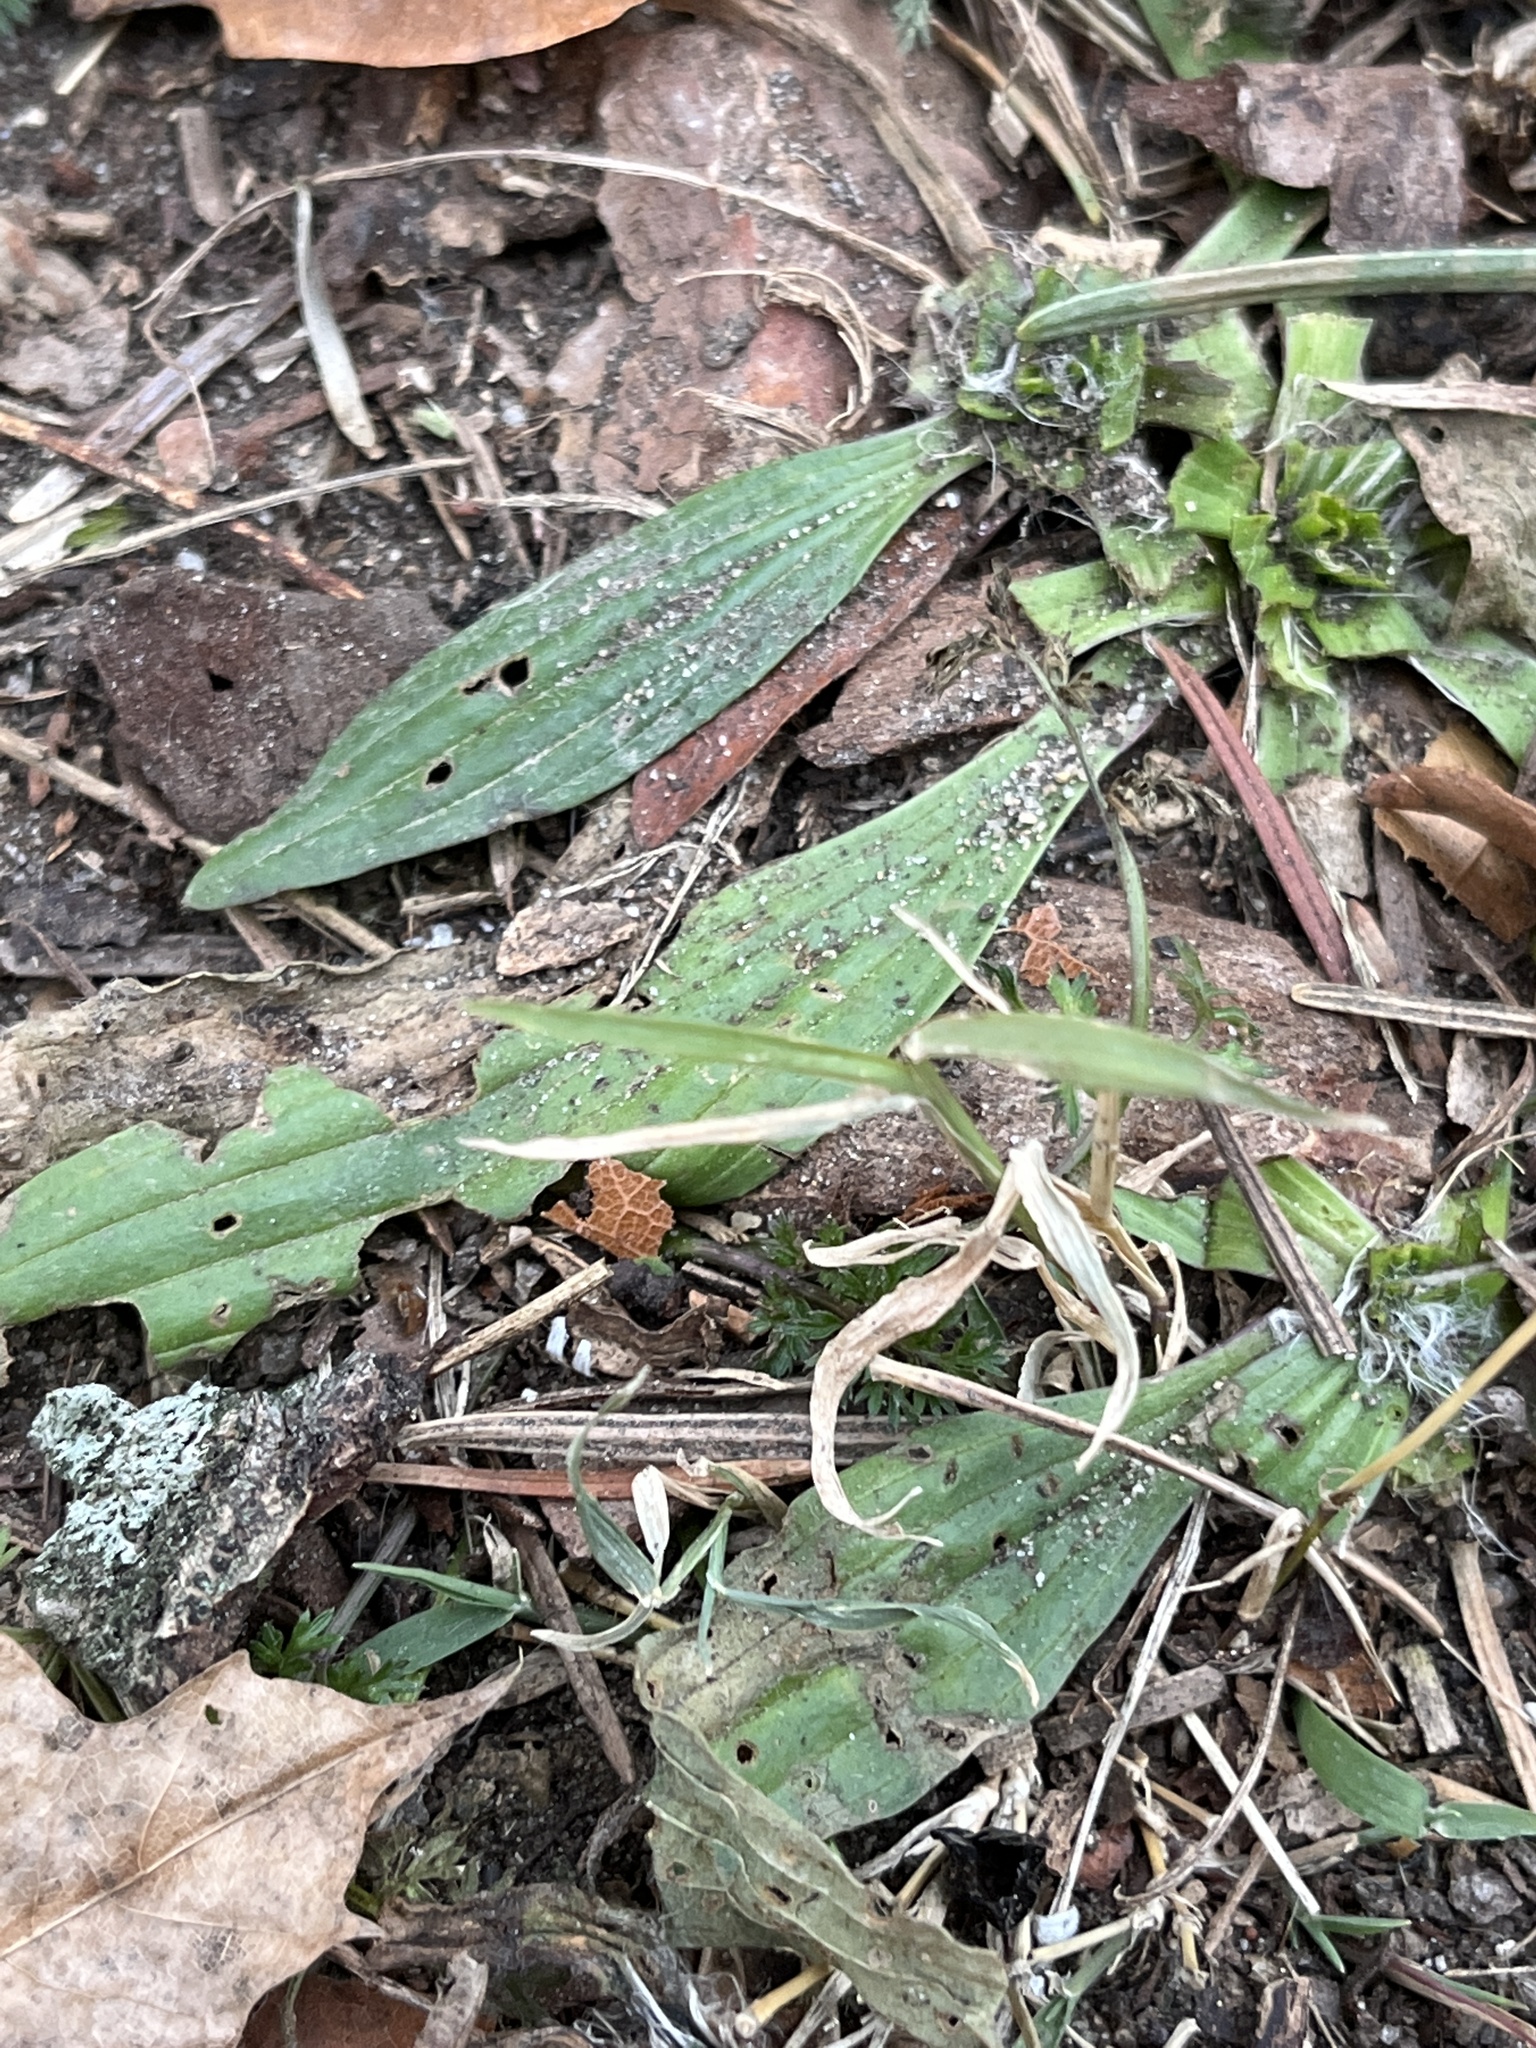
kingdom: Plantae
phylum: Tracheophyta
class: Magnoliopsida
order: Lamiales
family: Plantaginaceae
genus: Plantago
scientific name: Plantago lanceolata
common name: Ribwort plantain
